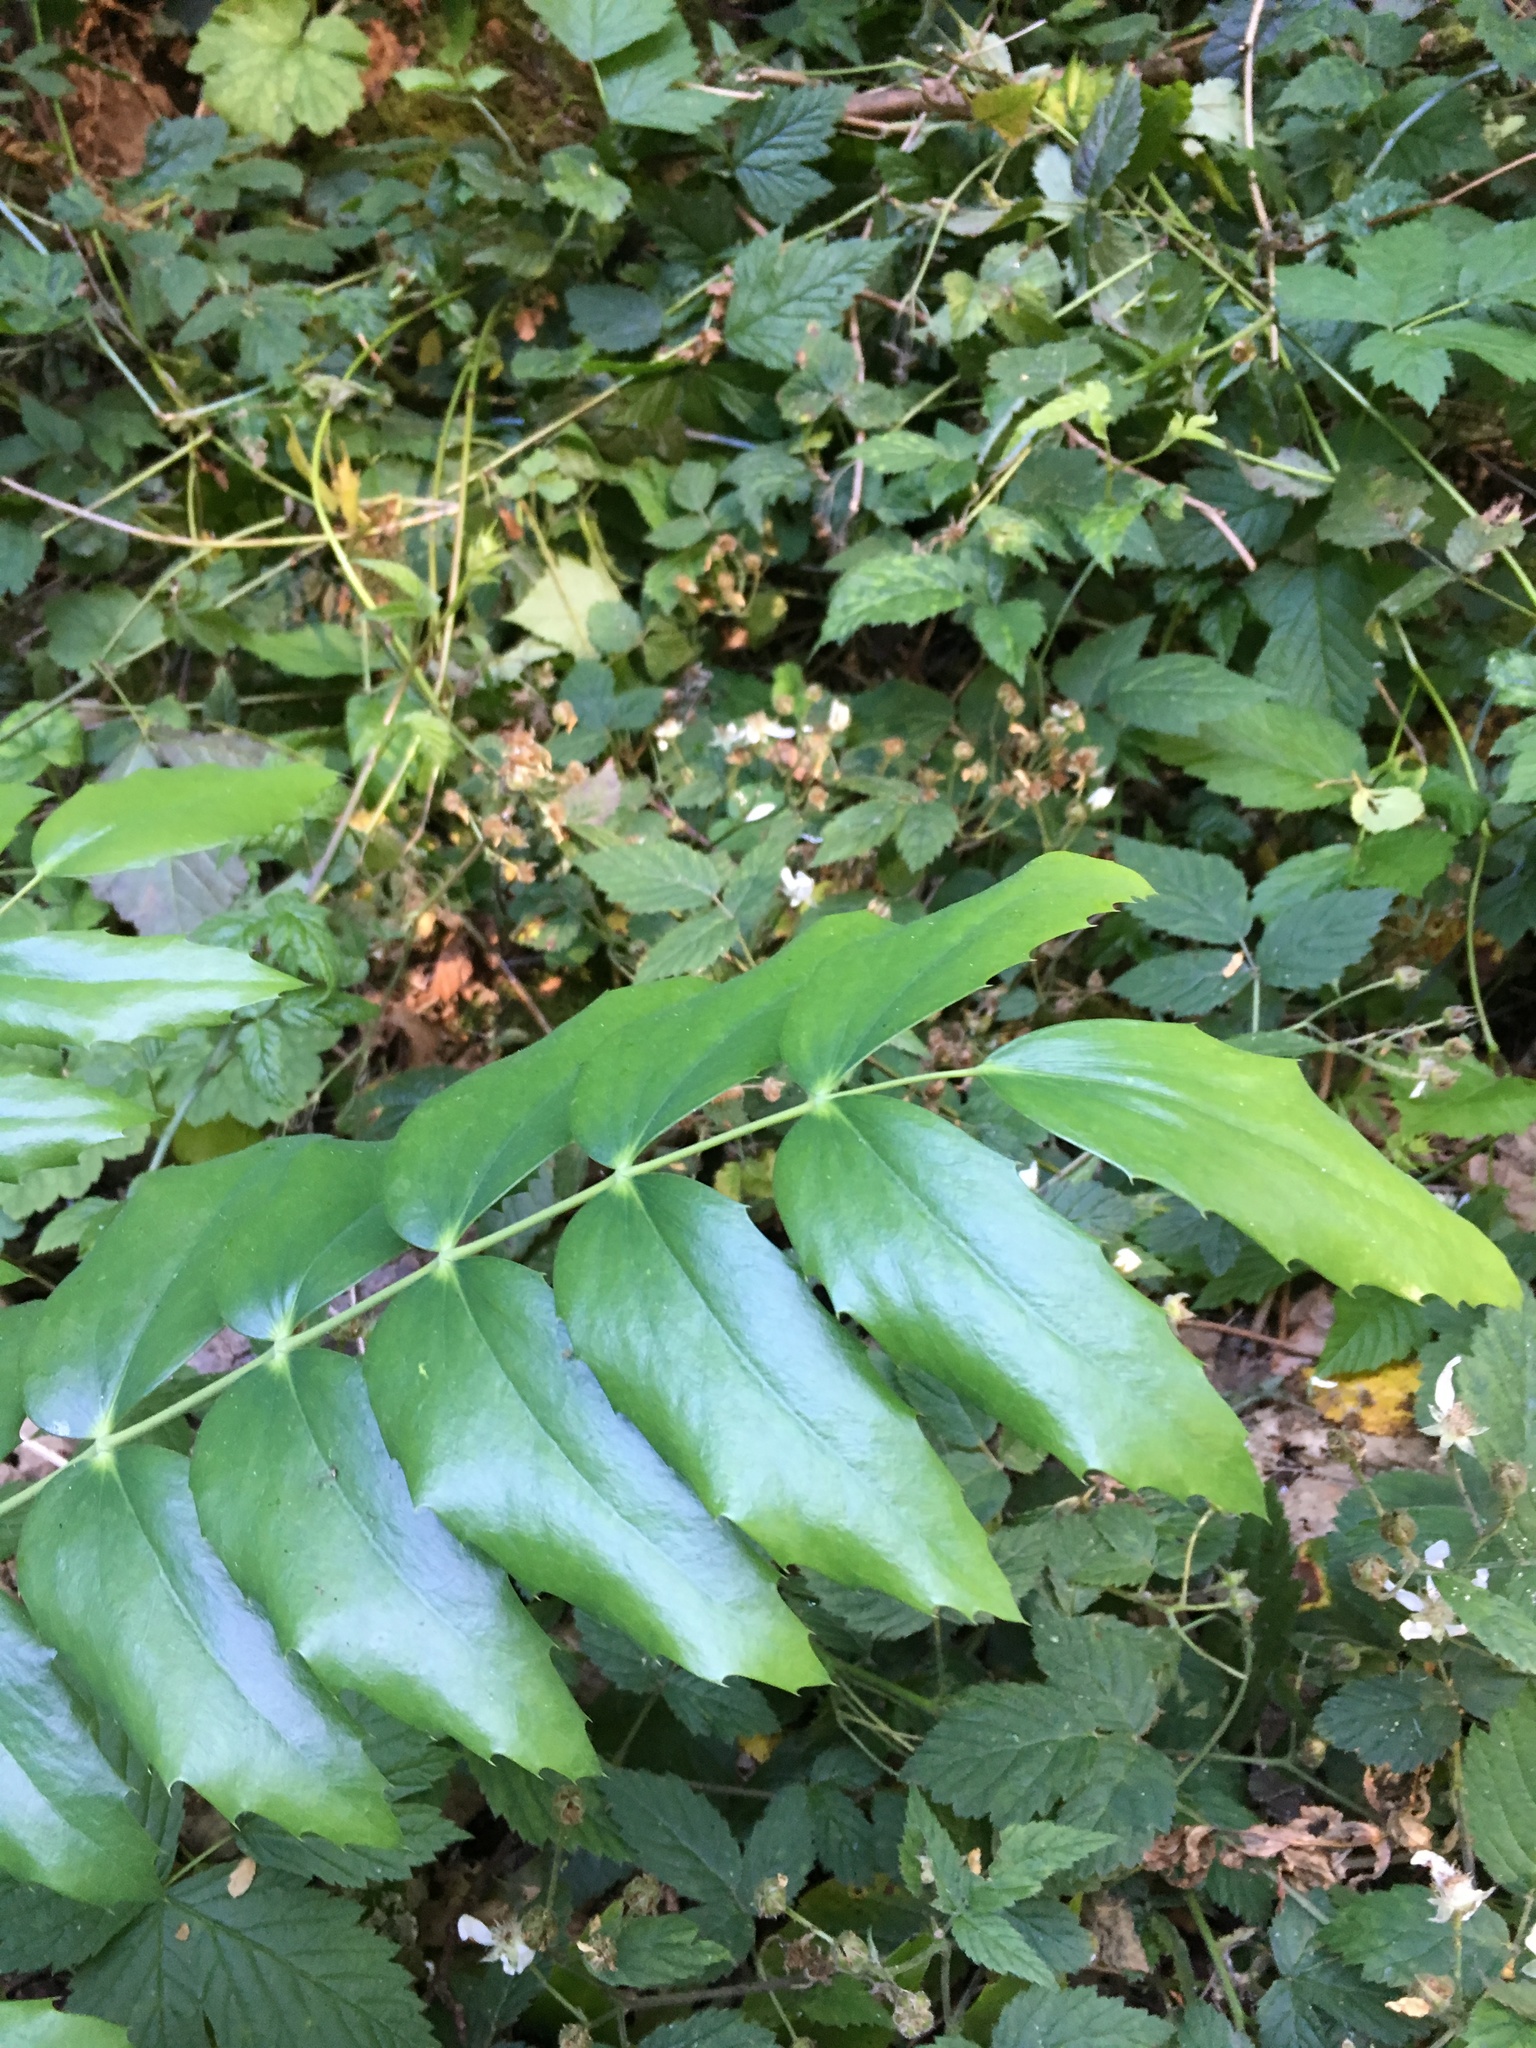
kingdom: Plantae
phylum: Tracheophyta
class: Magnoliopsida
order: Ranunculales
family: Berberidaceae
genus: Mahonia
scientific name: Mahonia nervosa
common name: Cascade oregon-grape
